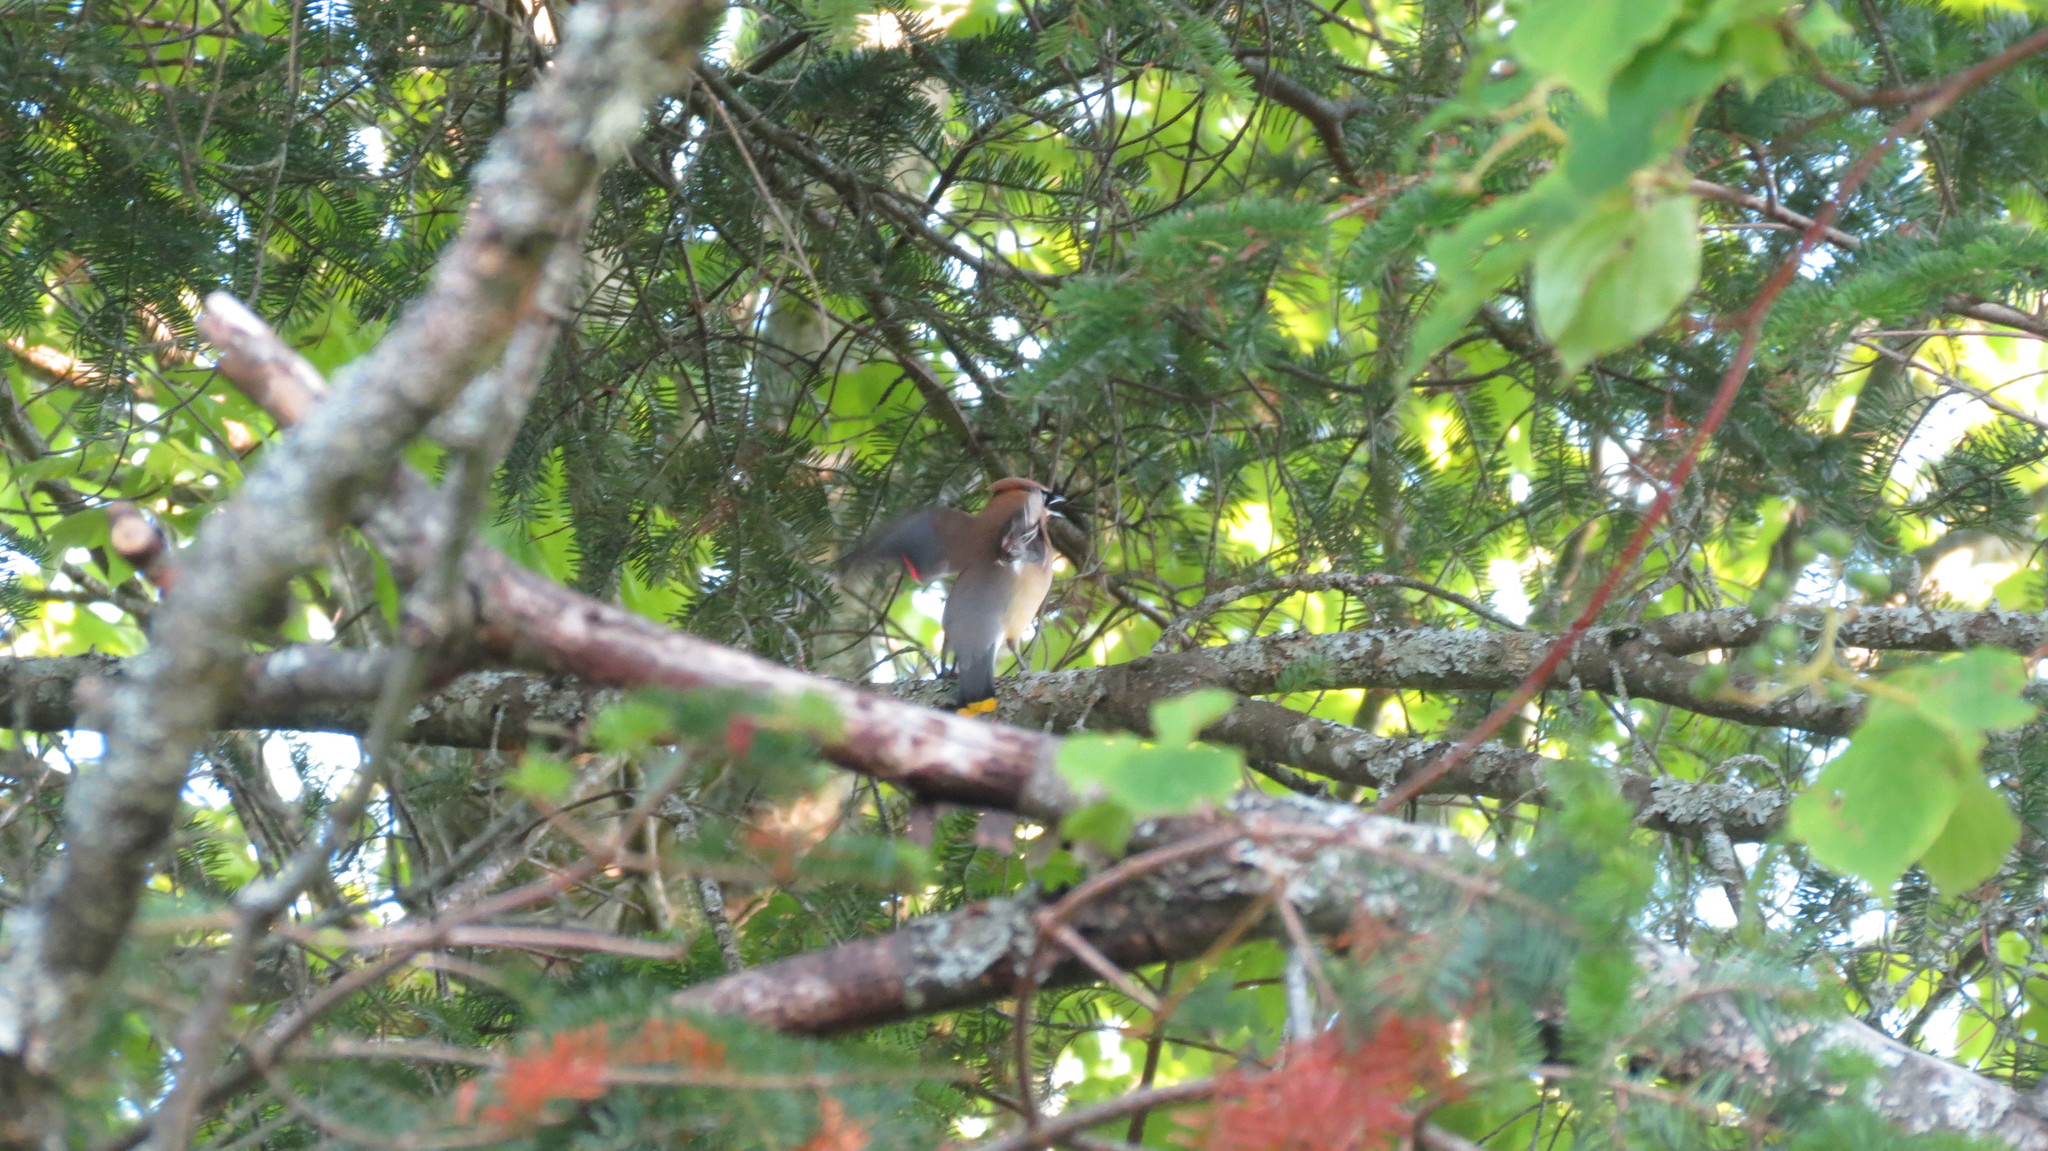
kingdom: Animalia
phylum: Chordata
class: Aves
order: Passeriformes
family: Bombycillidae
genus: Bombycilla
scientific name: Bombycilla cedrorum
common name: Cedar waxwing
